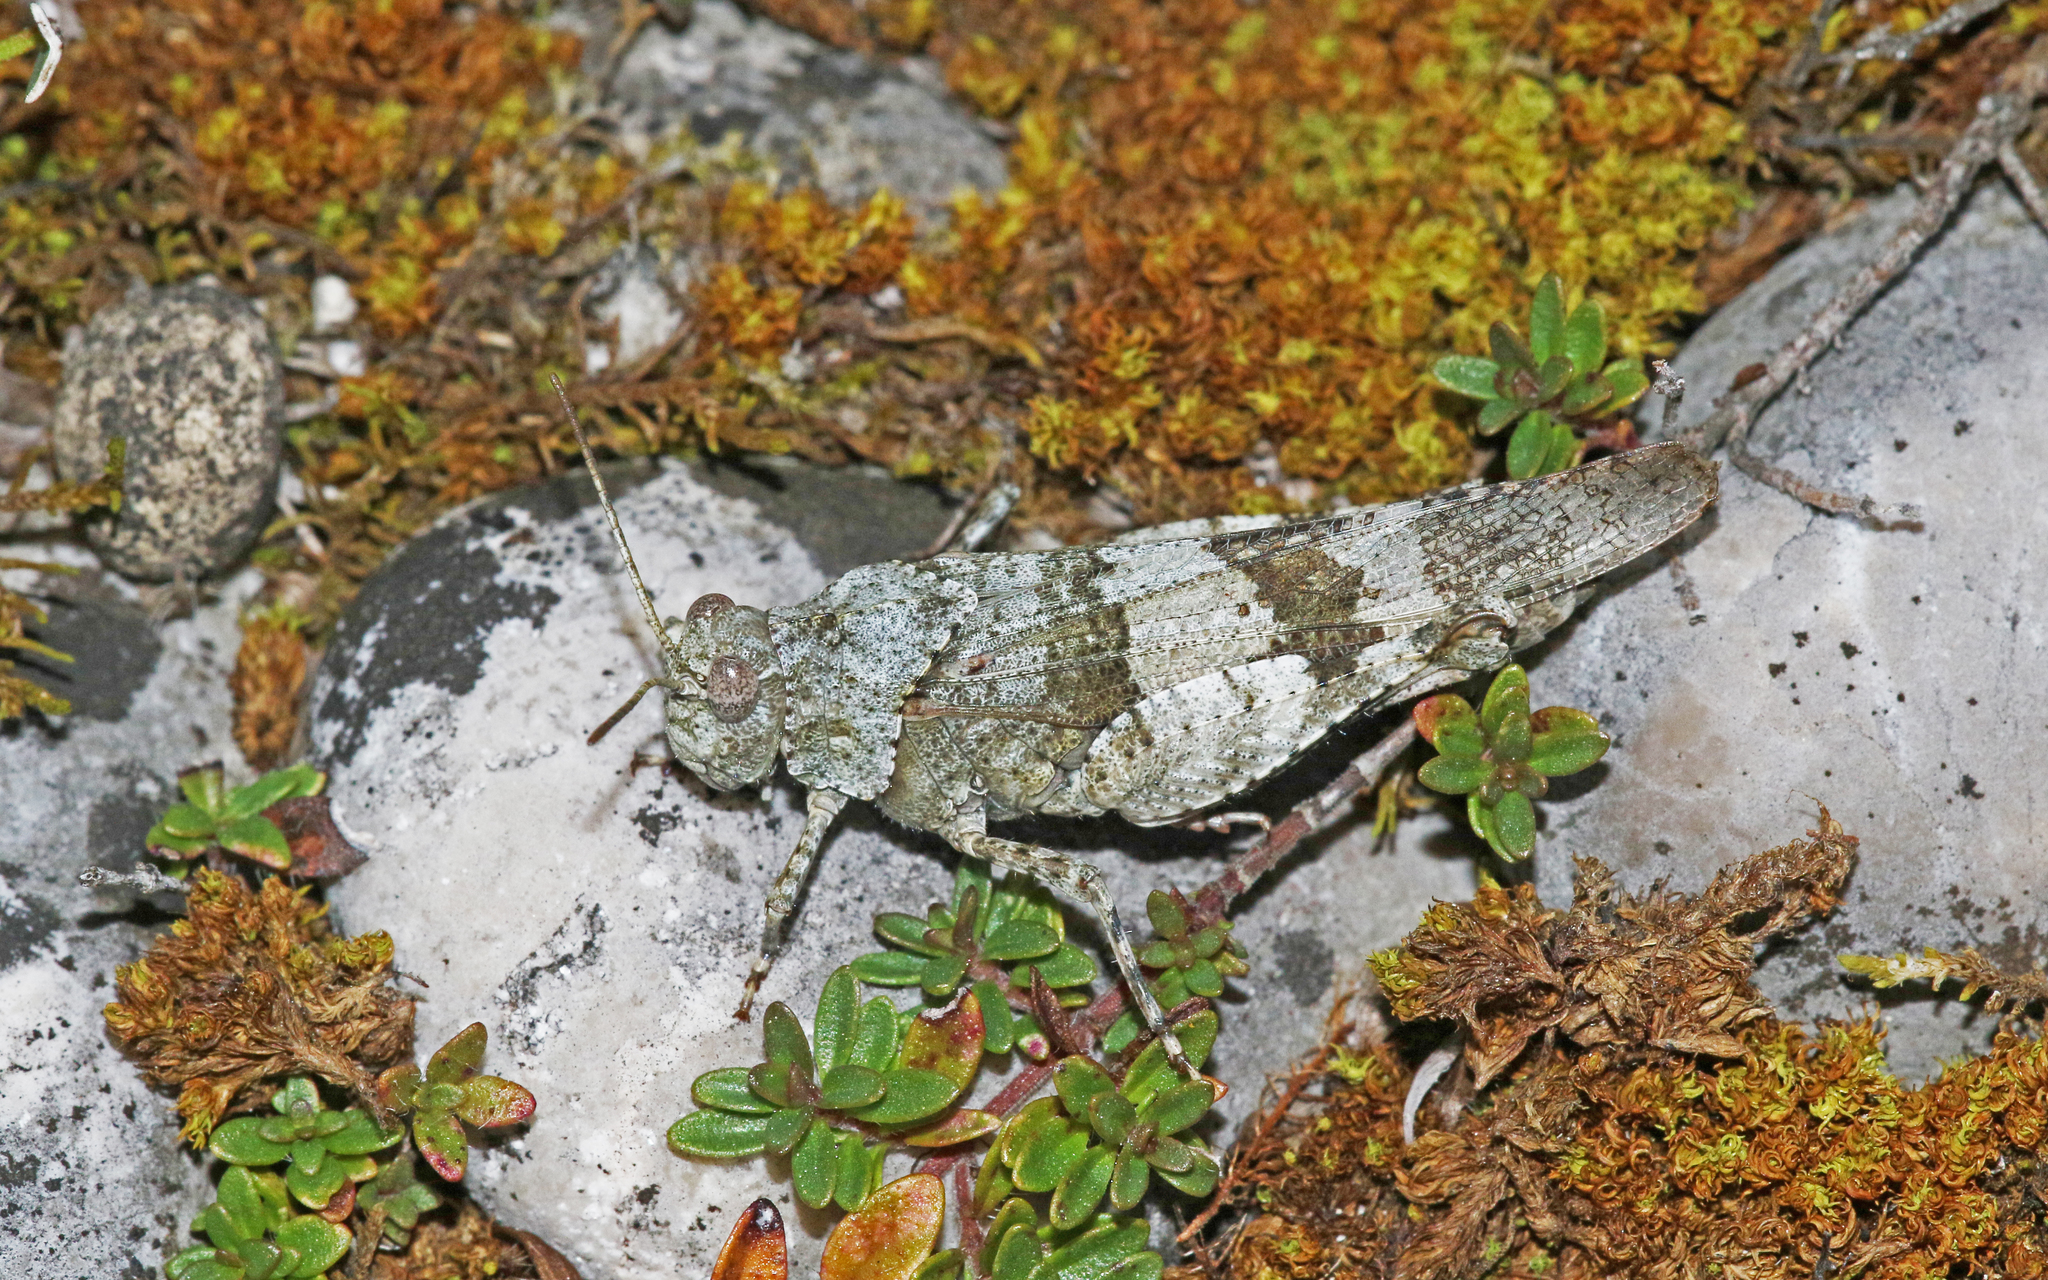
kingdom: Animalia
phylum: Arthropoda
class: Insecta
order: Orthoptera
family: Acrididae
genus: Oedipoda
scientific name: Oedipoda caerulescens
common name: Blue-winged grasshopper
